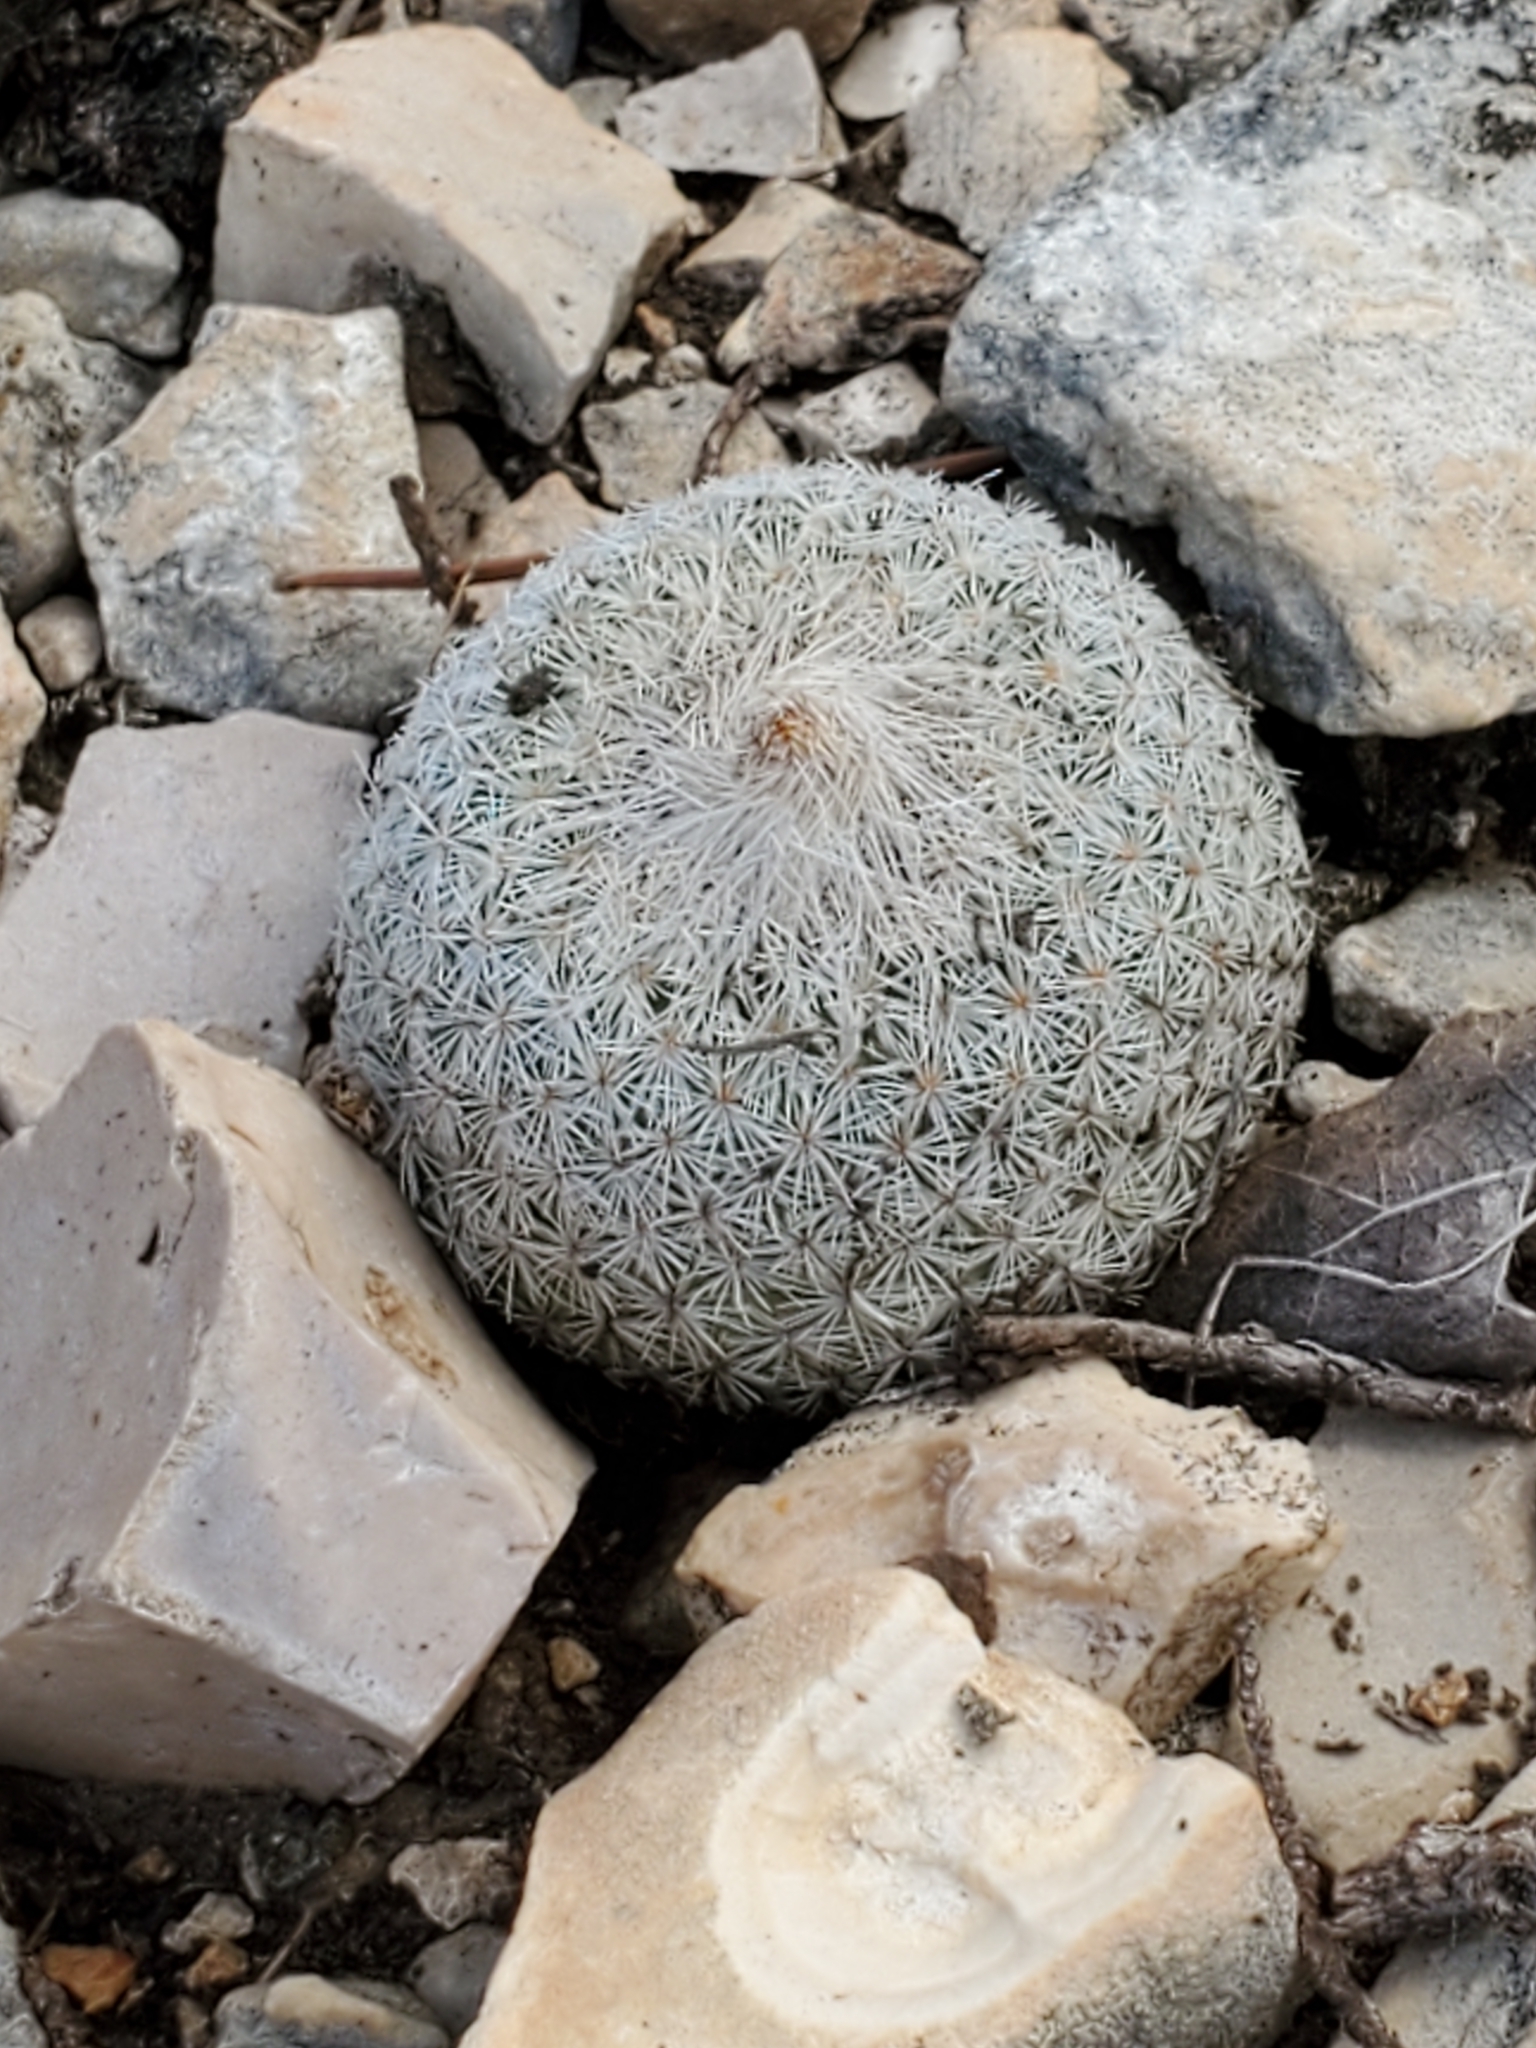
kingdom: Plantae
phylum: Tracheophyta
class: Magnoliopsida
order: Caryophyllales
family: Cactaceae
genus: Epithelantha
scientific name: Epithelantha micromeris
